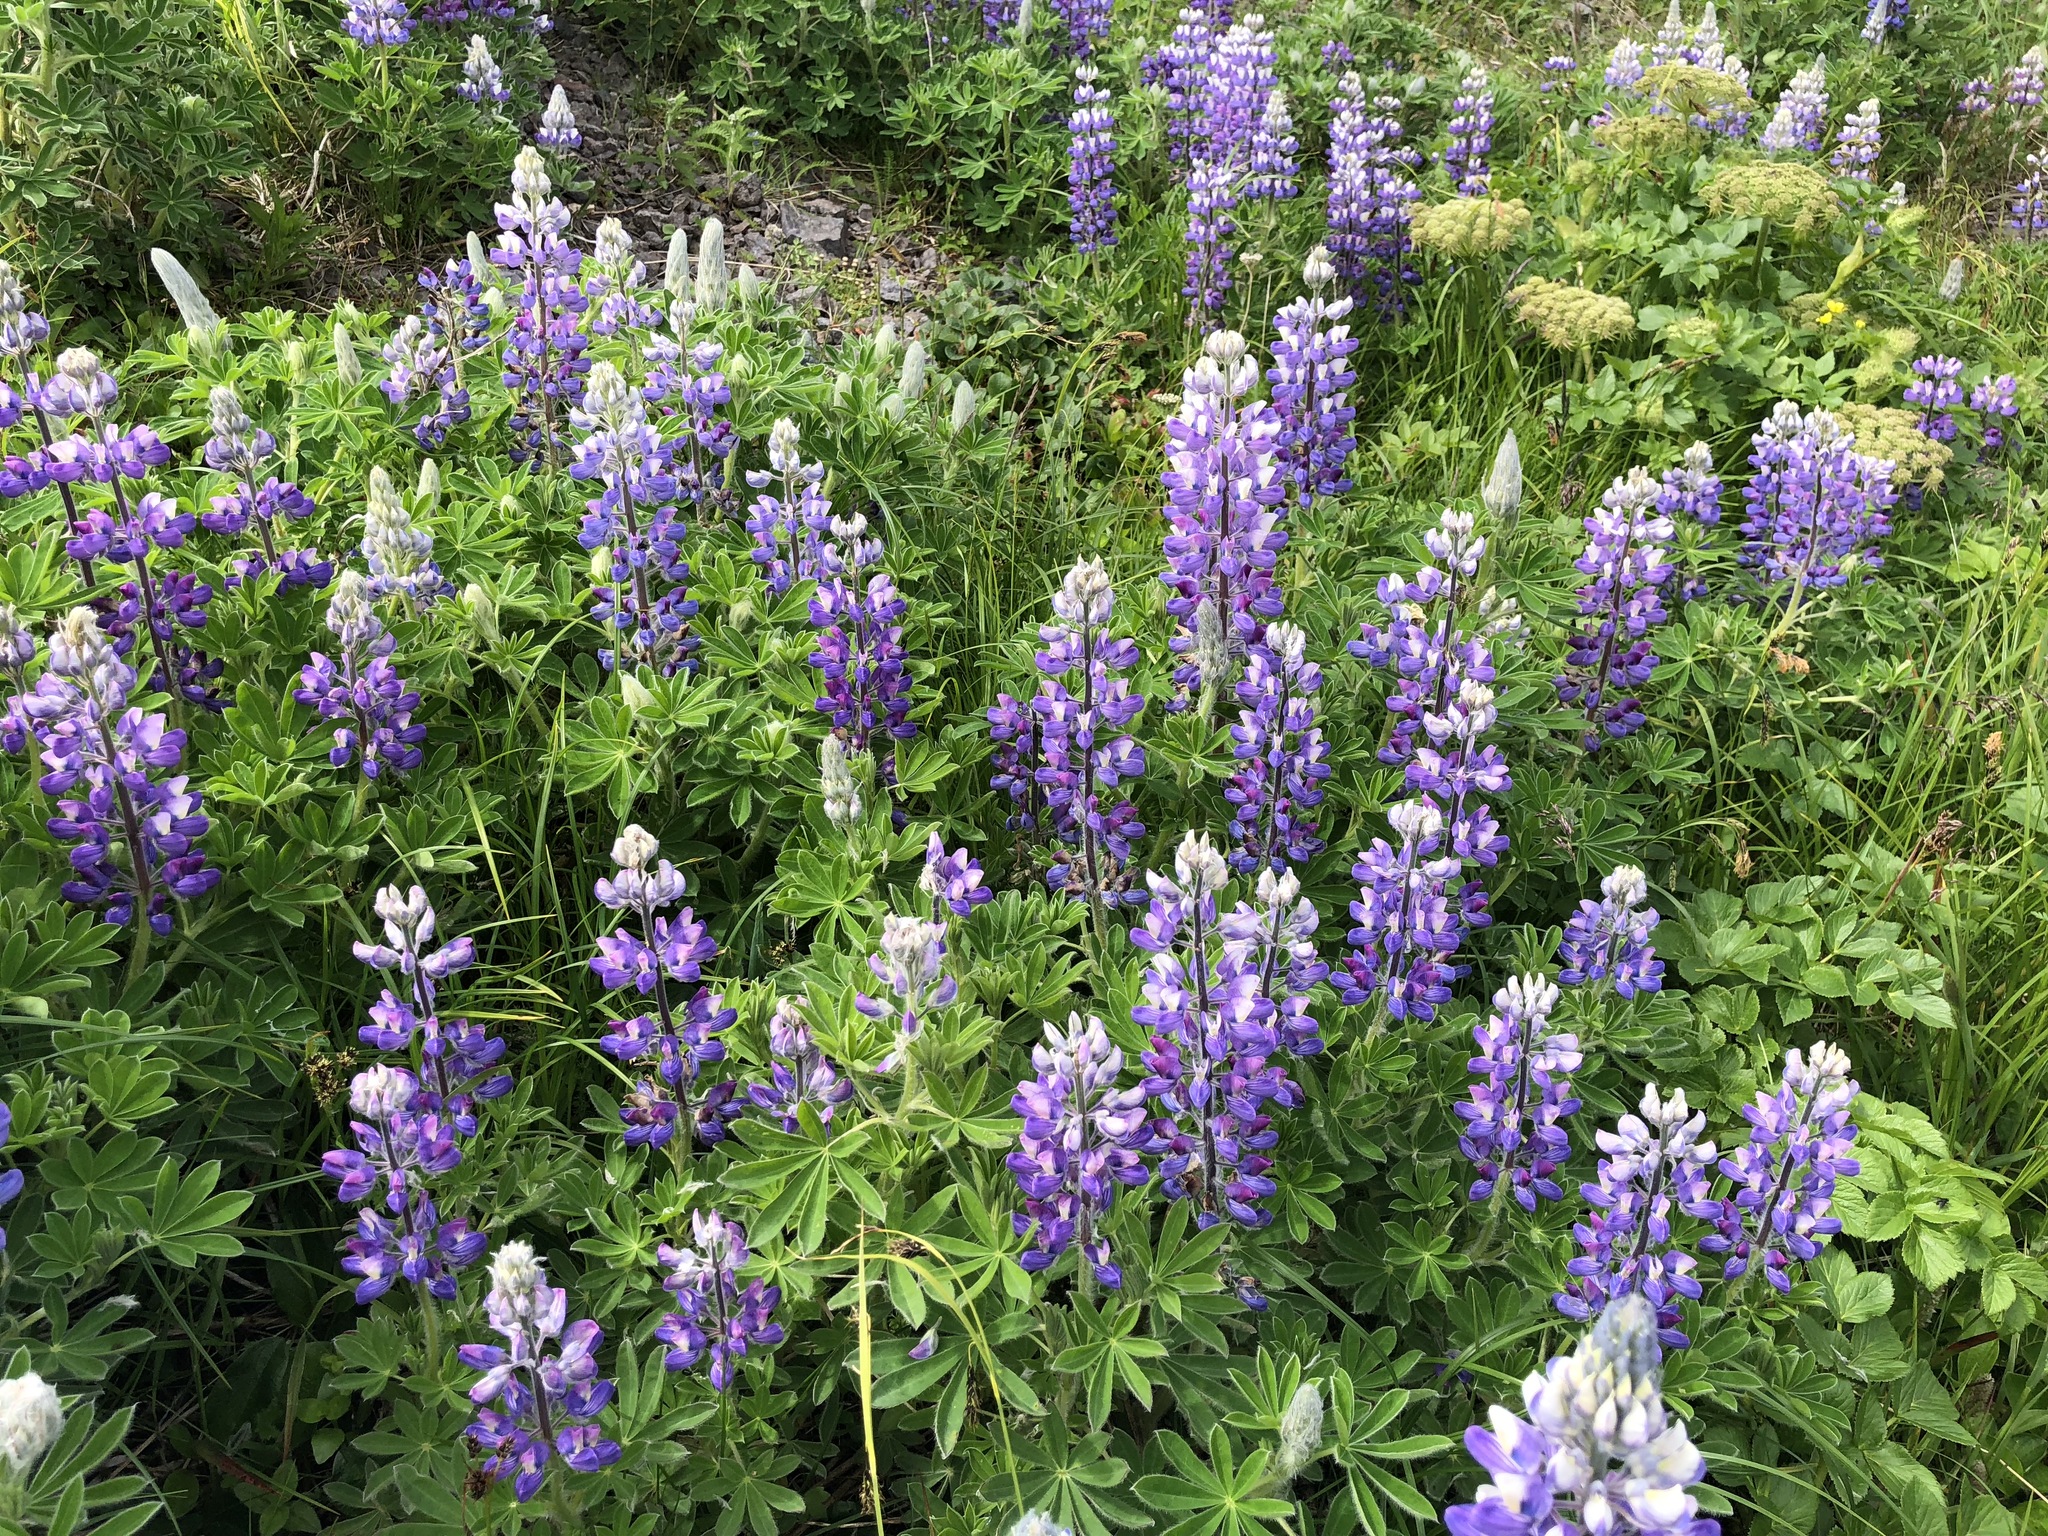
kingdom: Plantae
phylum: Tracheophyta
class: Magnoliopsida
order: Fabales
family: Fabaceae
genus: Lupinus
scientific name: Lupinus nootkatensis
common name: Nootka lupine
